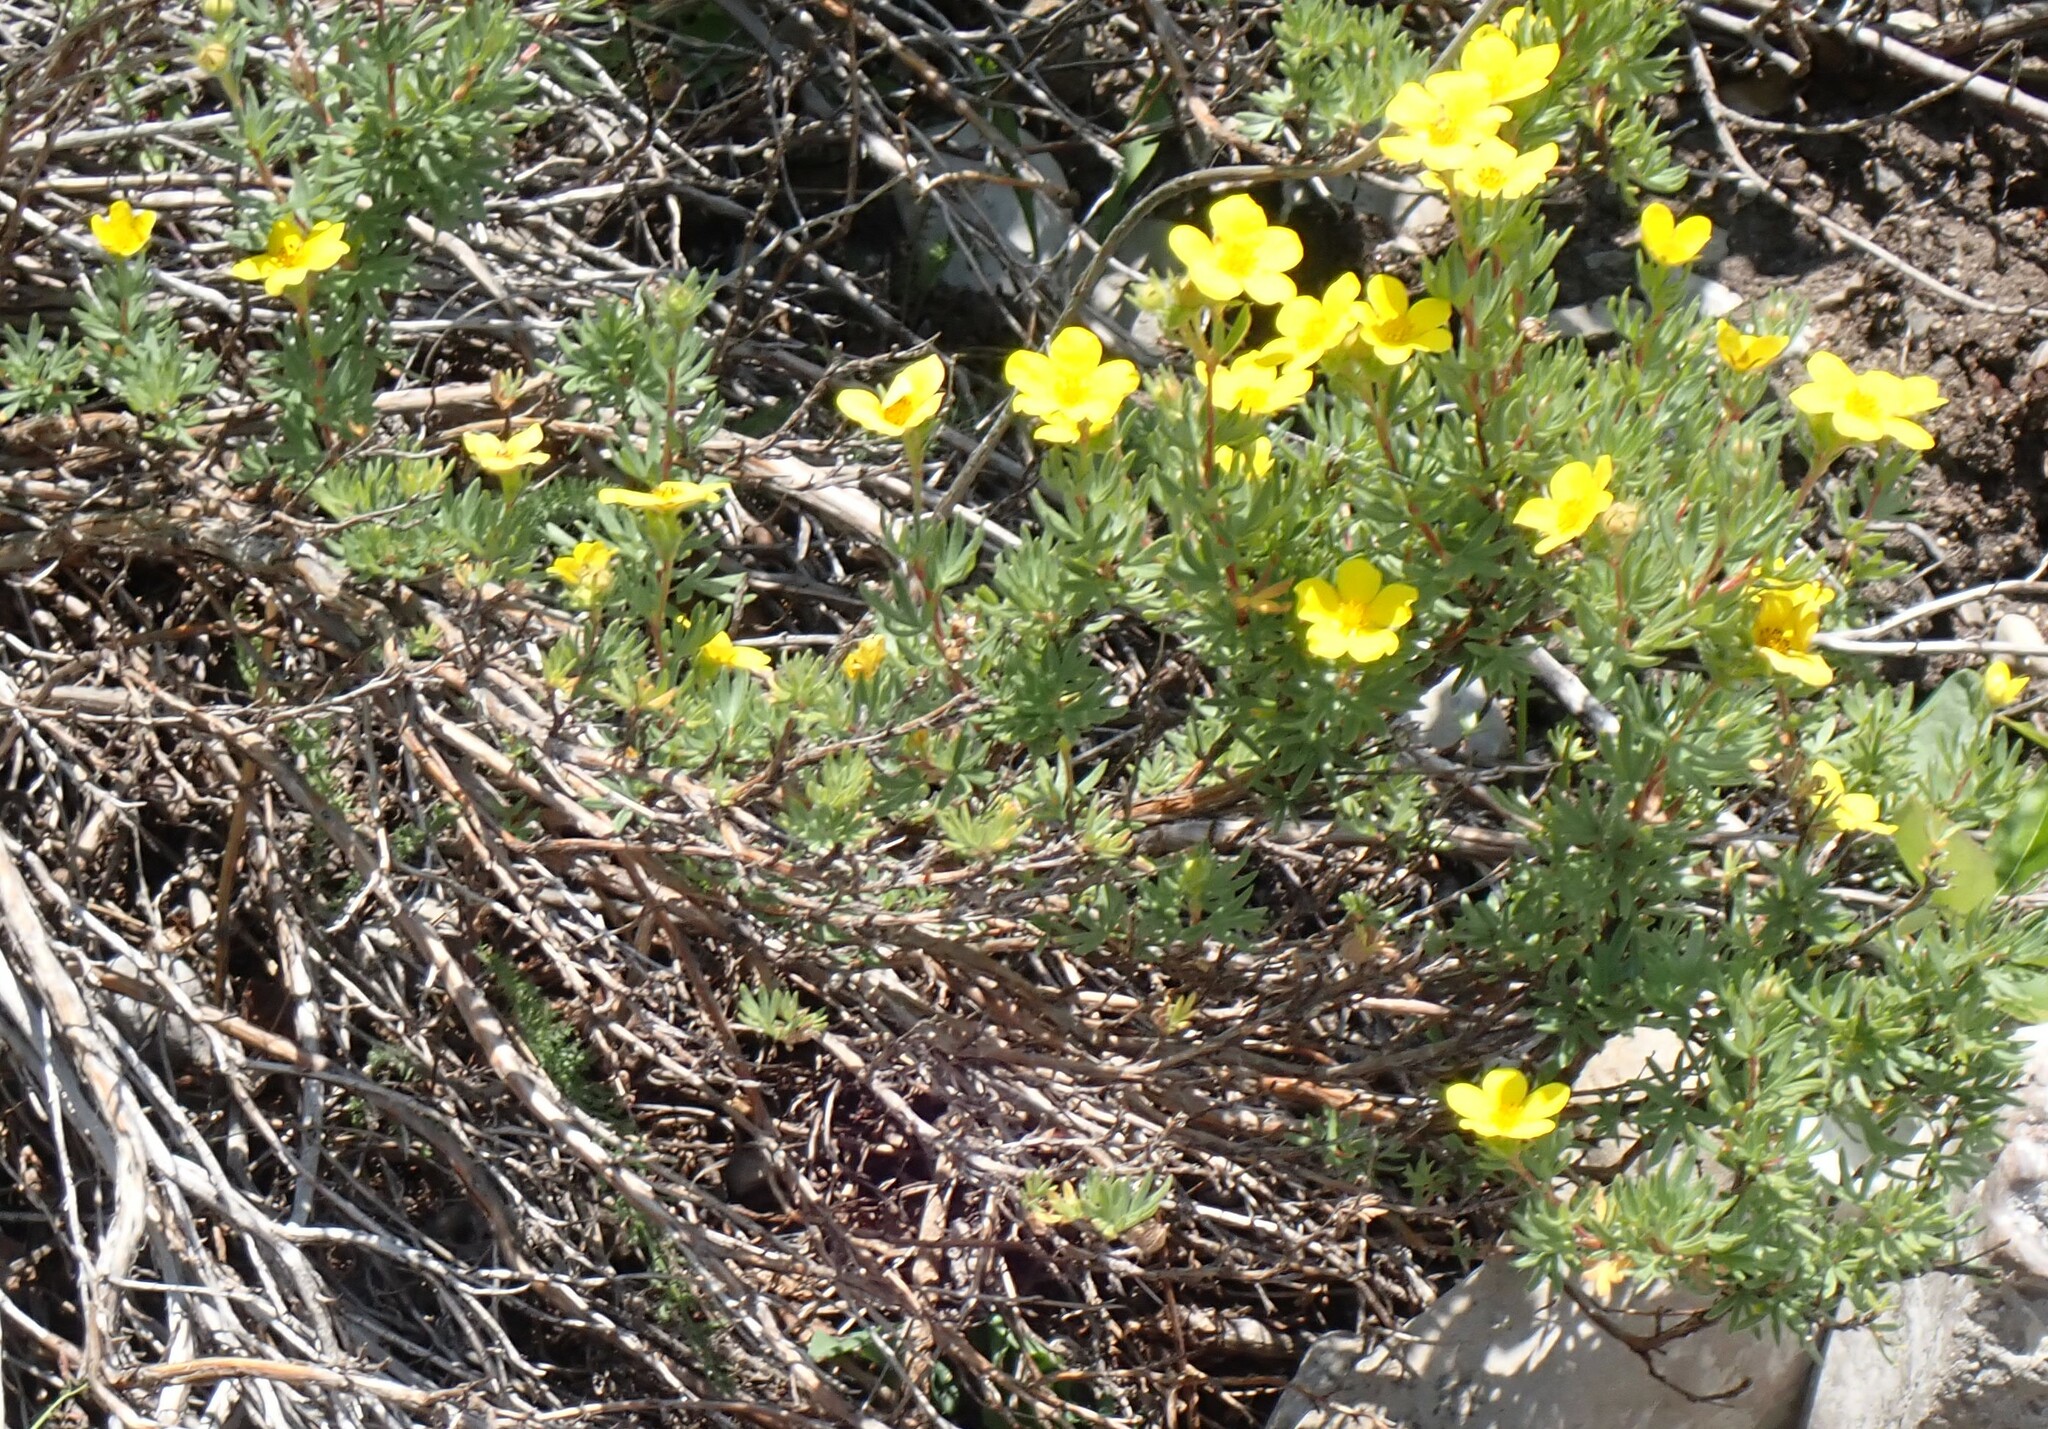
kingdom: Plantae
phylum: Tracheophyta
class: Magnoliopsida
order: Rosales
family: Rosaceae
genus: Dasiphora
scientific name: Dasiphora fruticosa
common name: Shrubby cinquefoil
